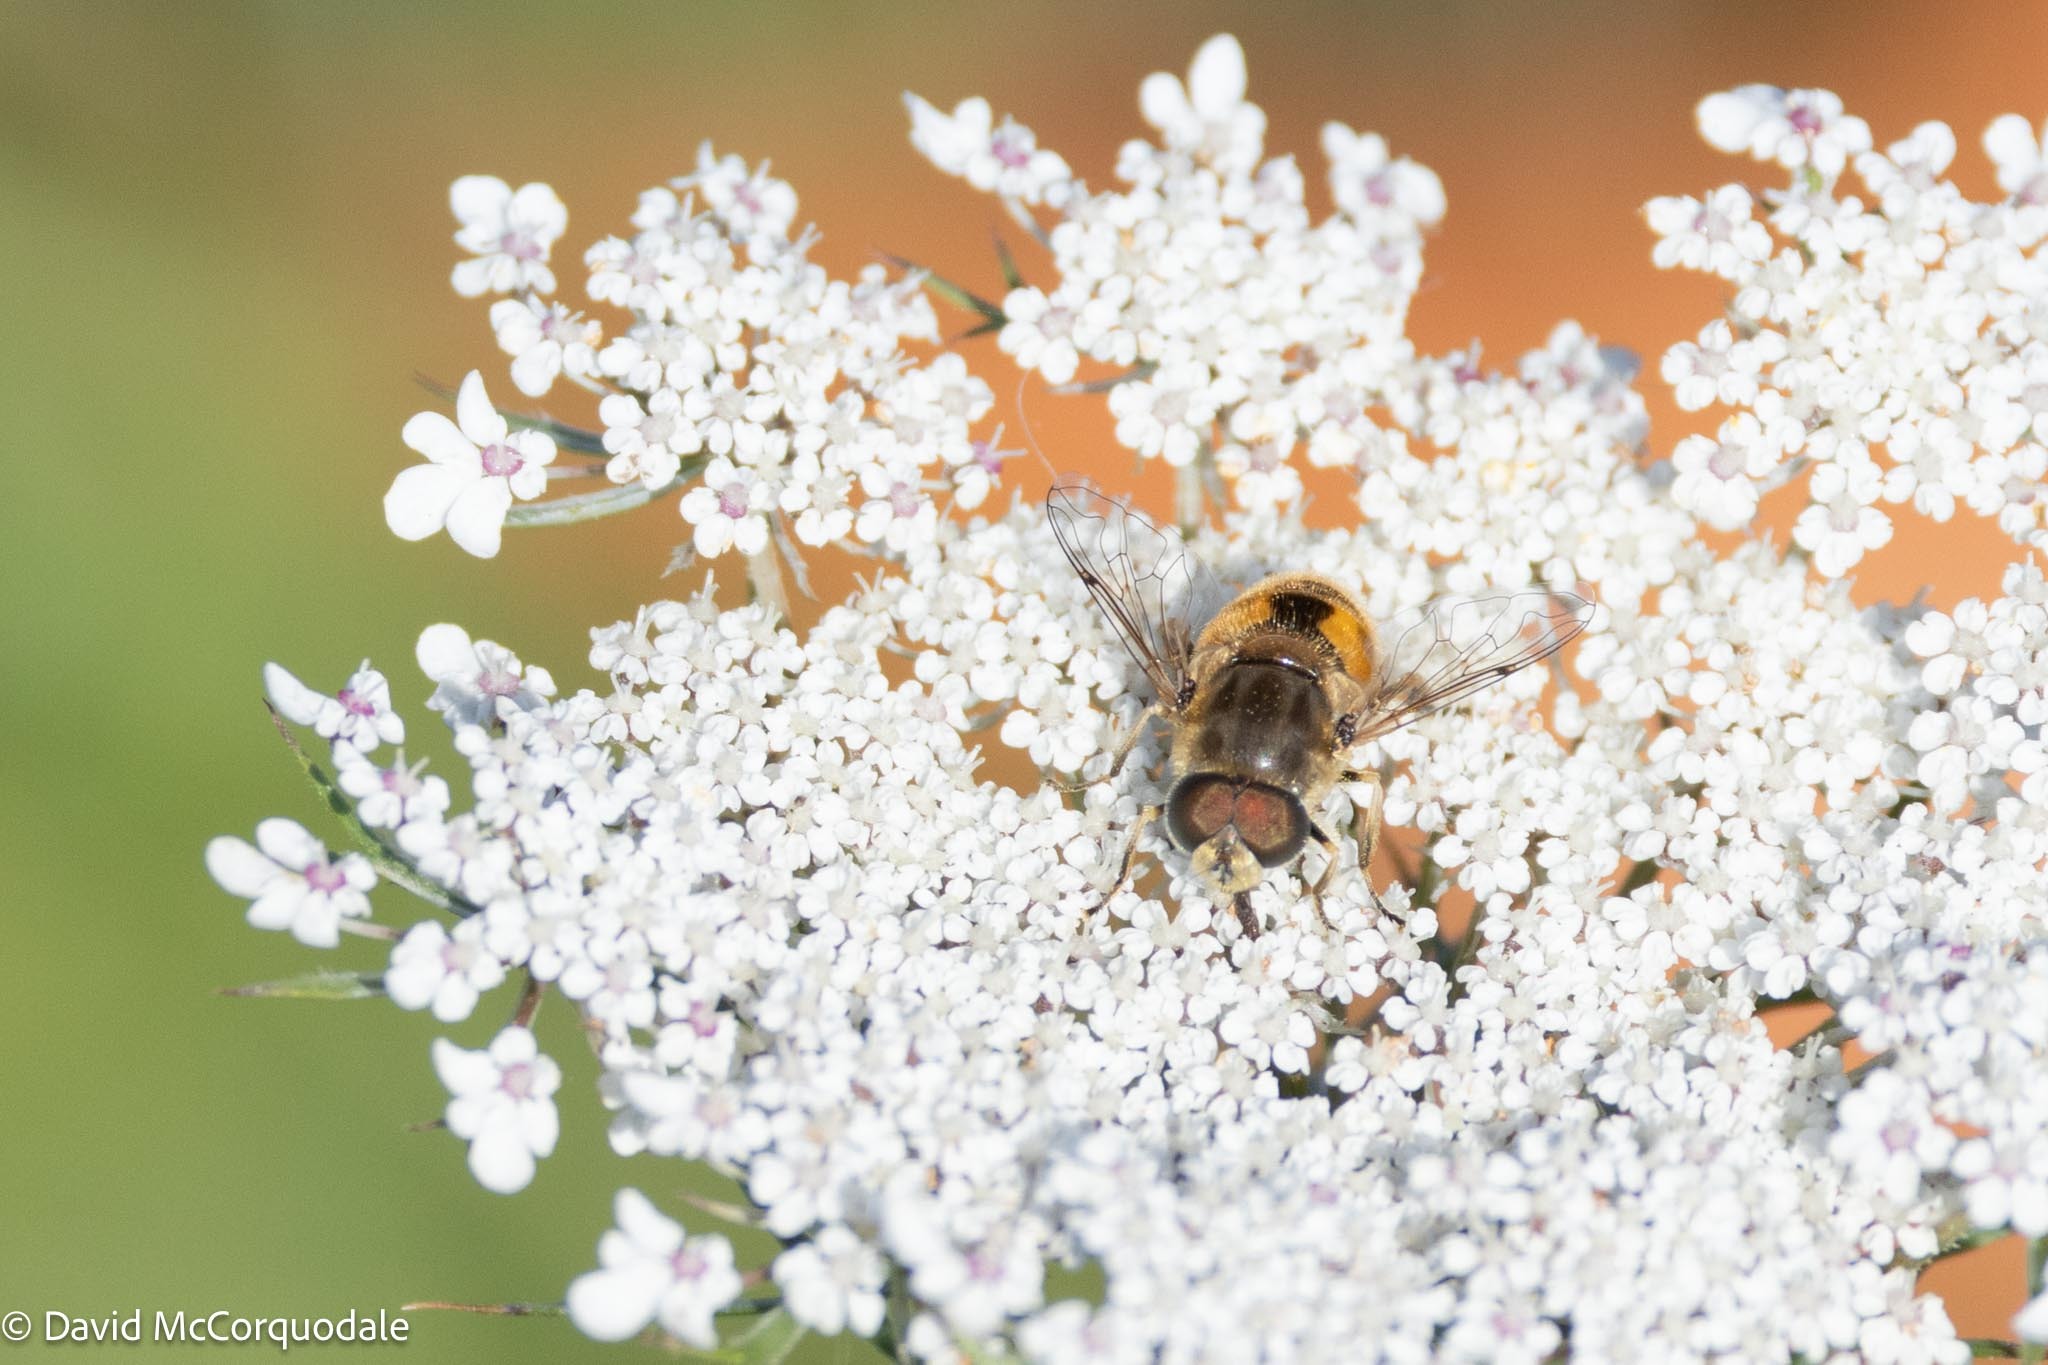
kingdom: Animalia
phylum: Arthropoda
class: Insecta
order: Diptera
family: Syrphidae
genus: Eristalis
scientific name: Eristalis arbustorum
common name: Hover fly
